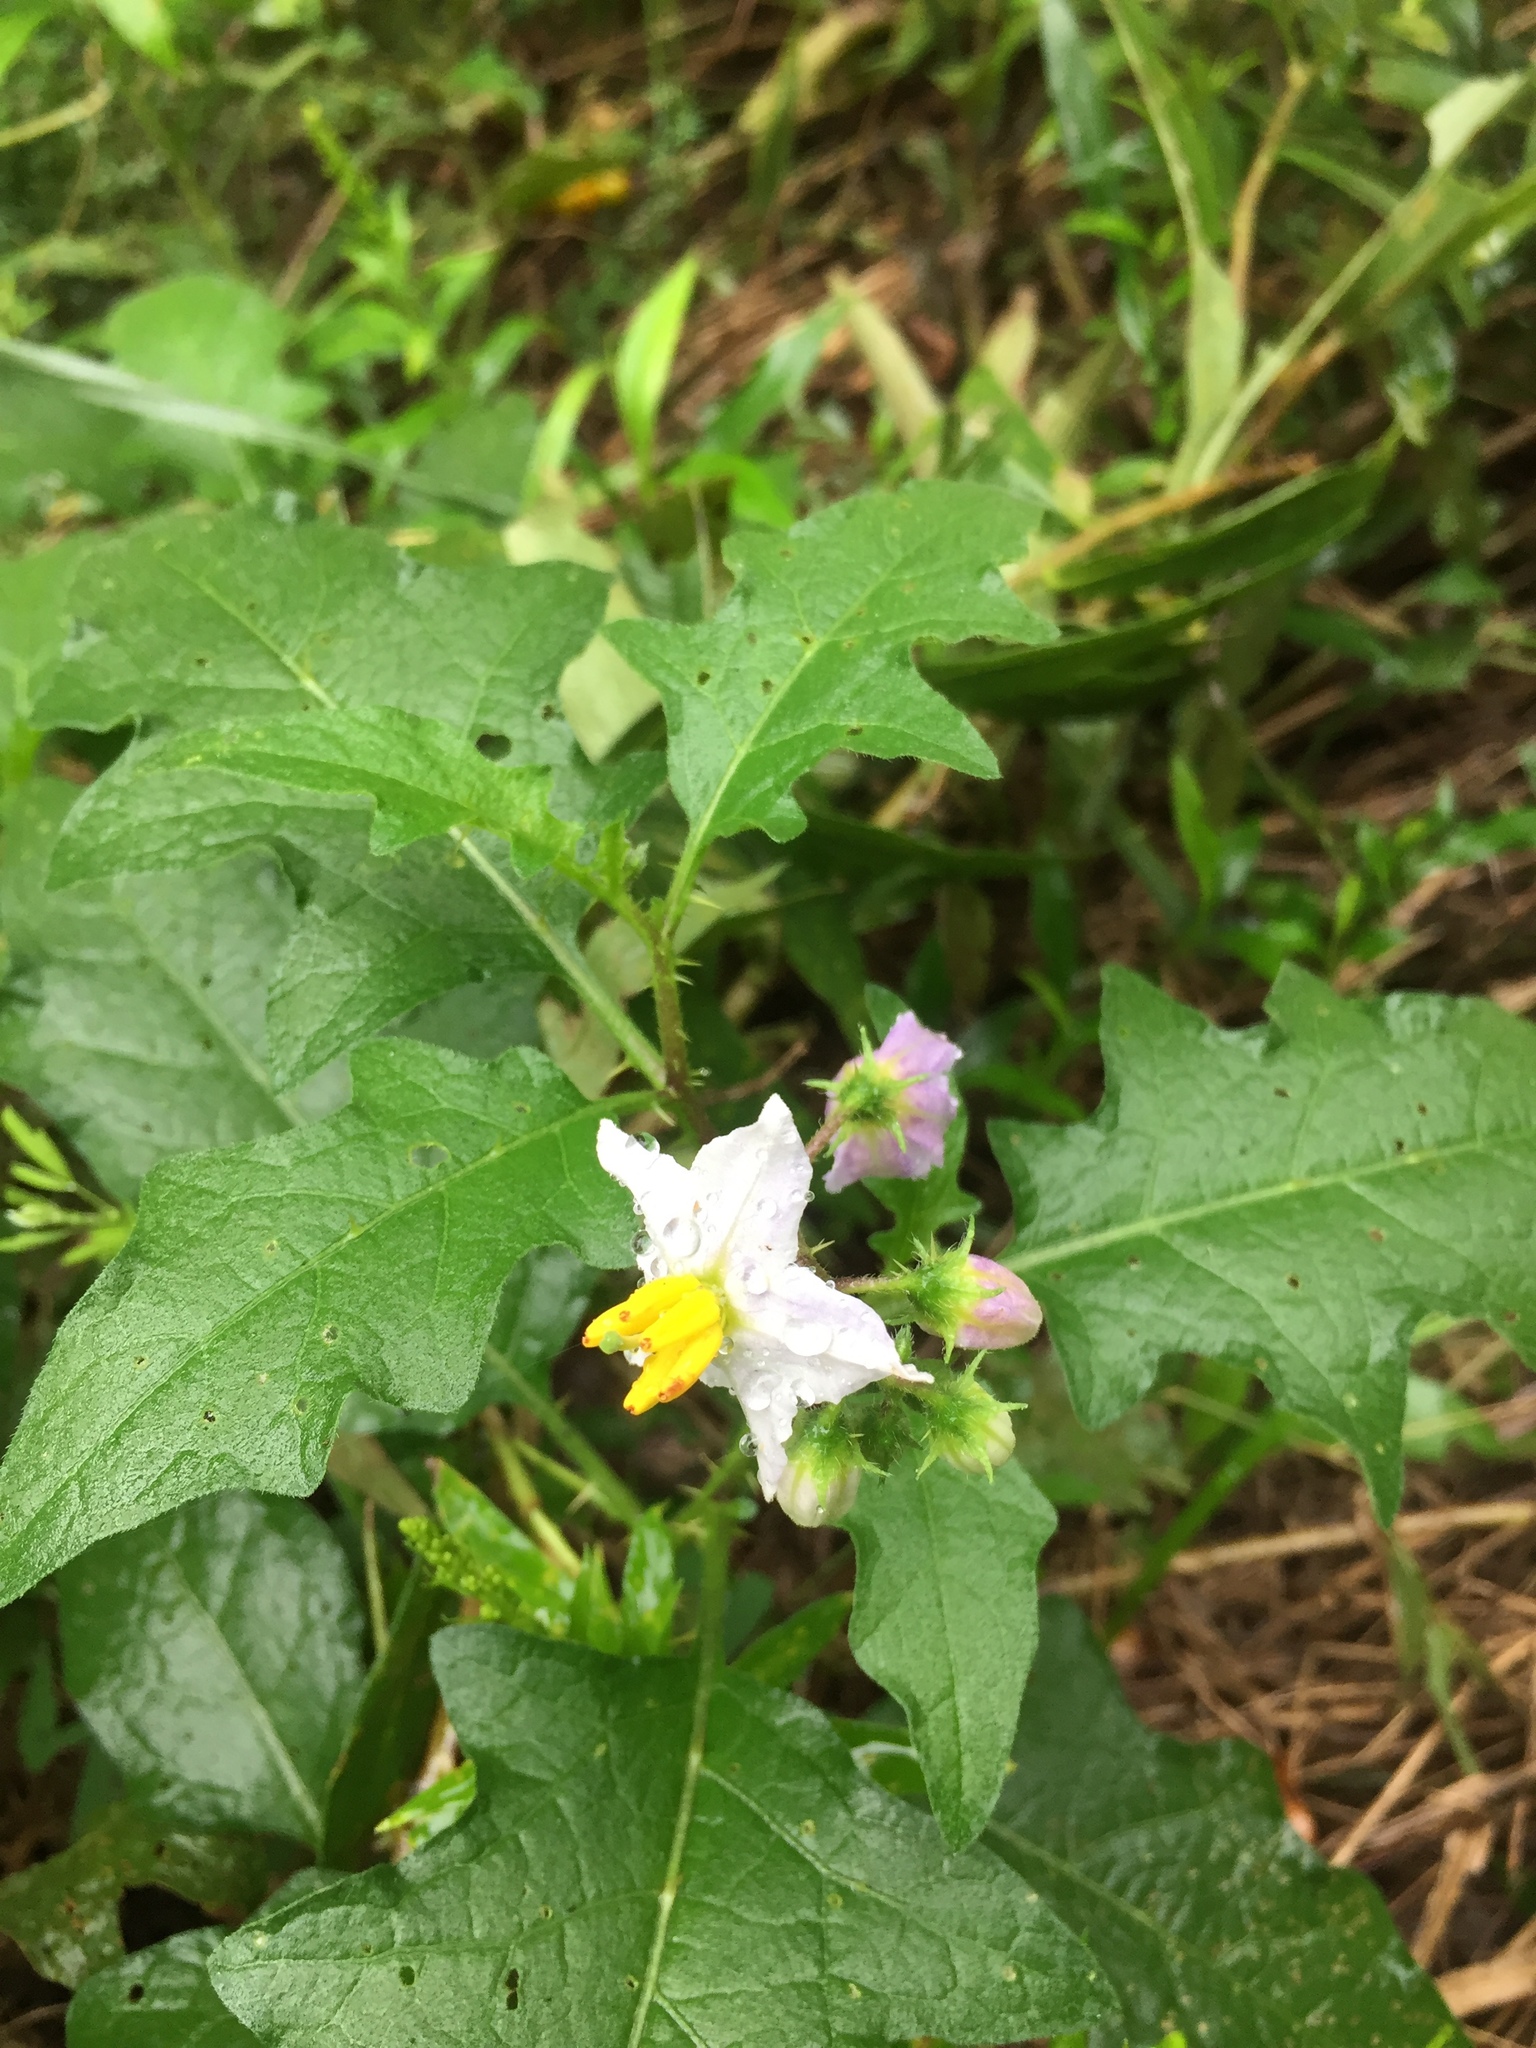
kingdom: Plantae
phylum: Tracheophyta
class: Magnoliopsida
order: Solanales
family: Solanaceae
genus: Solanum
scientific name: Solanum carolinense
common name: Horse-nettle
